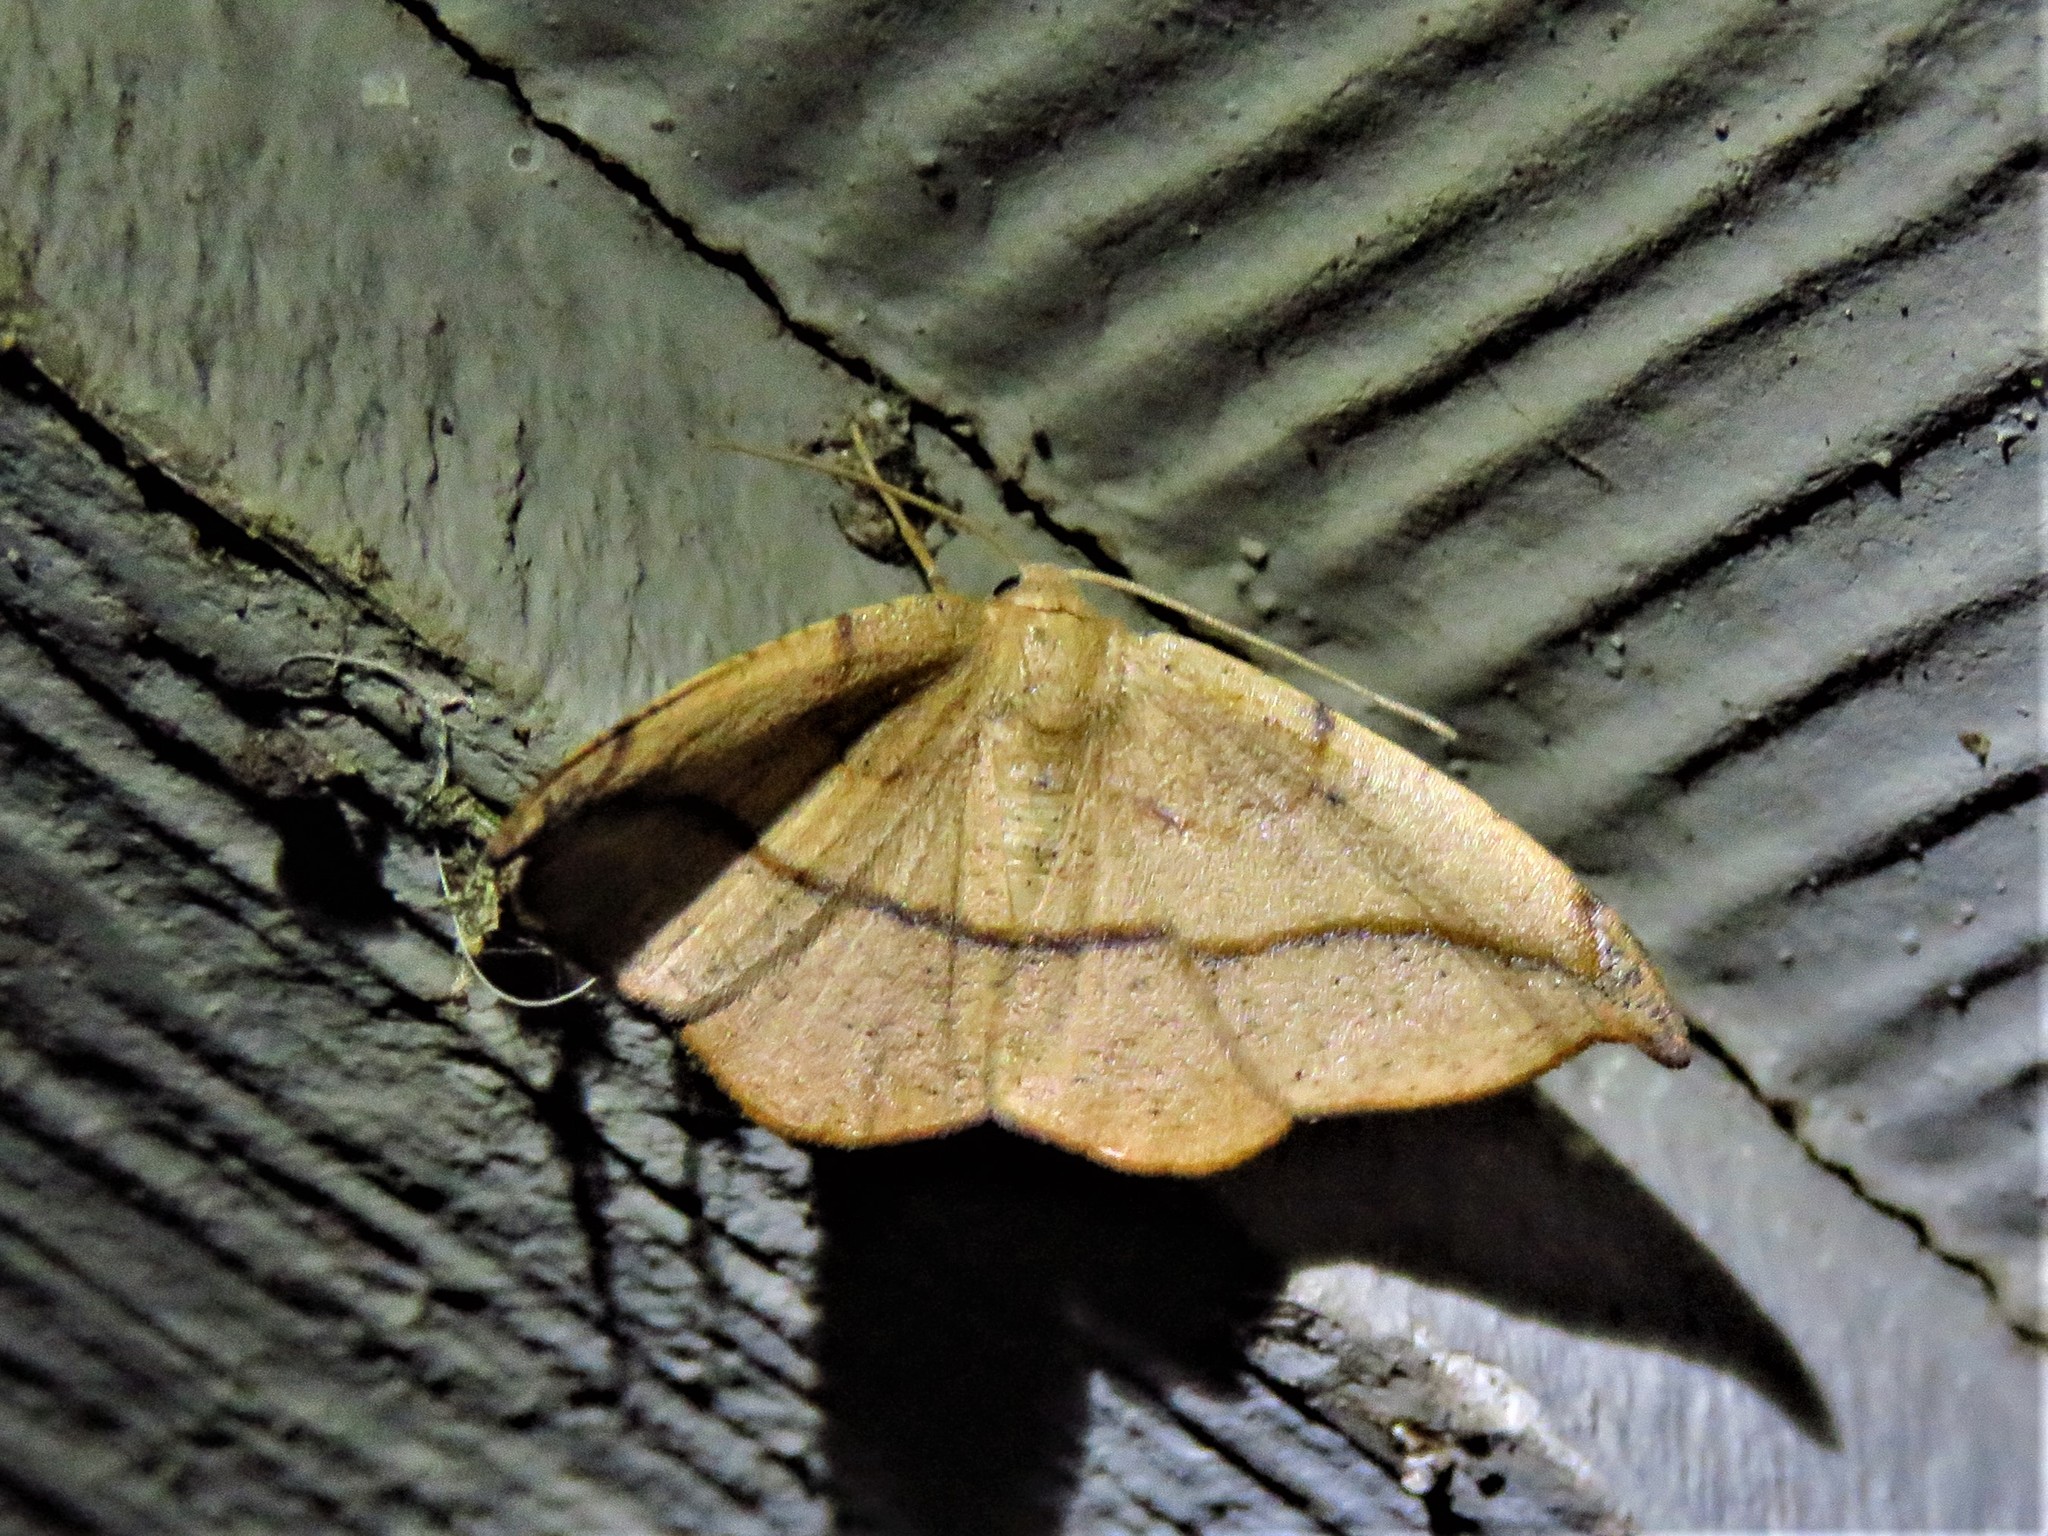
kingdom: Animalia
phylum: Arthropoda
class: Insecta
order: Lepidoptera
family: Geometridae
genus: Patalene
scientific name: Patalene olyzonaria
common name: Juniper geometer moth
